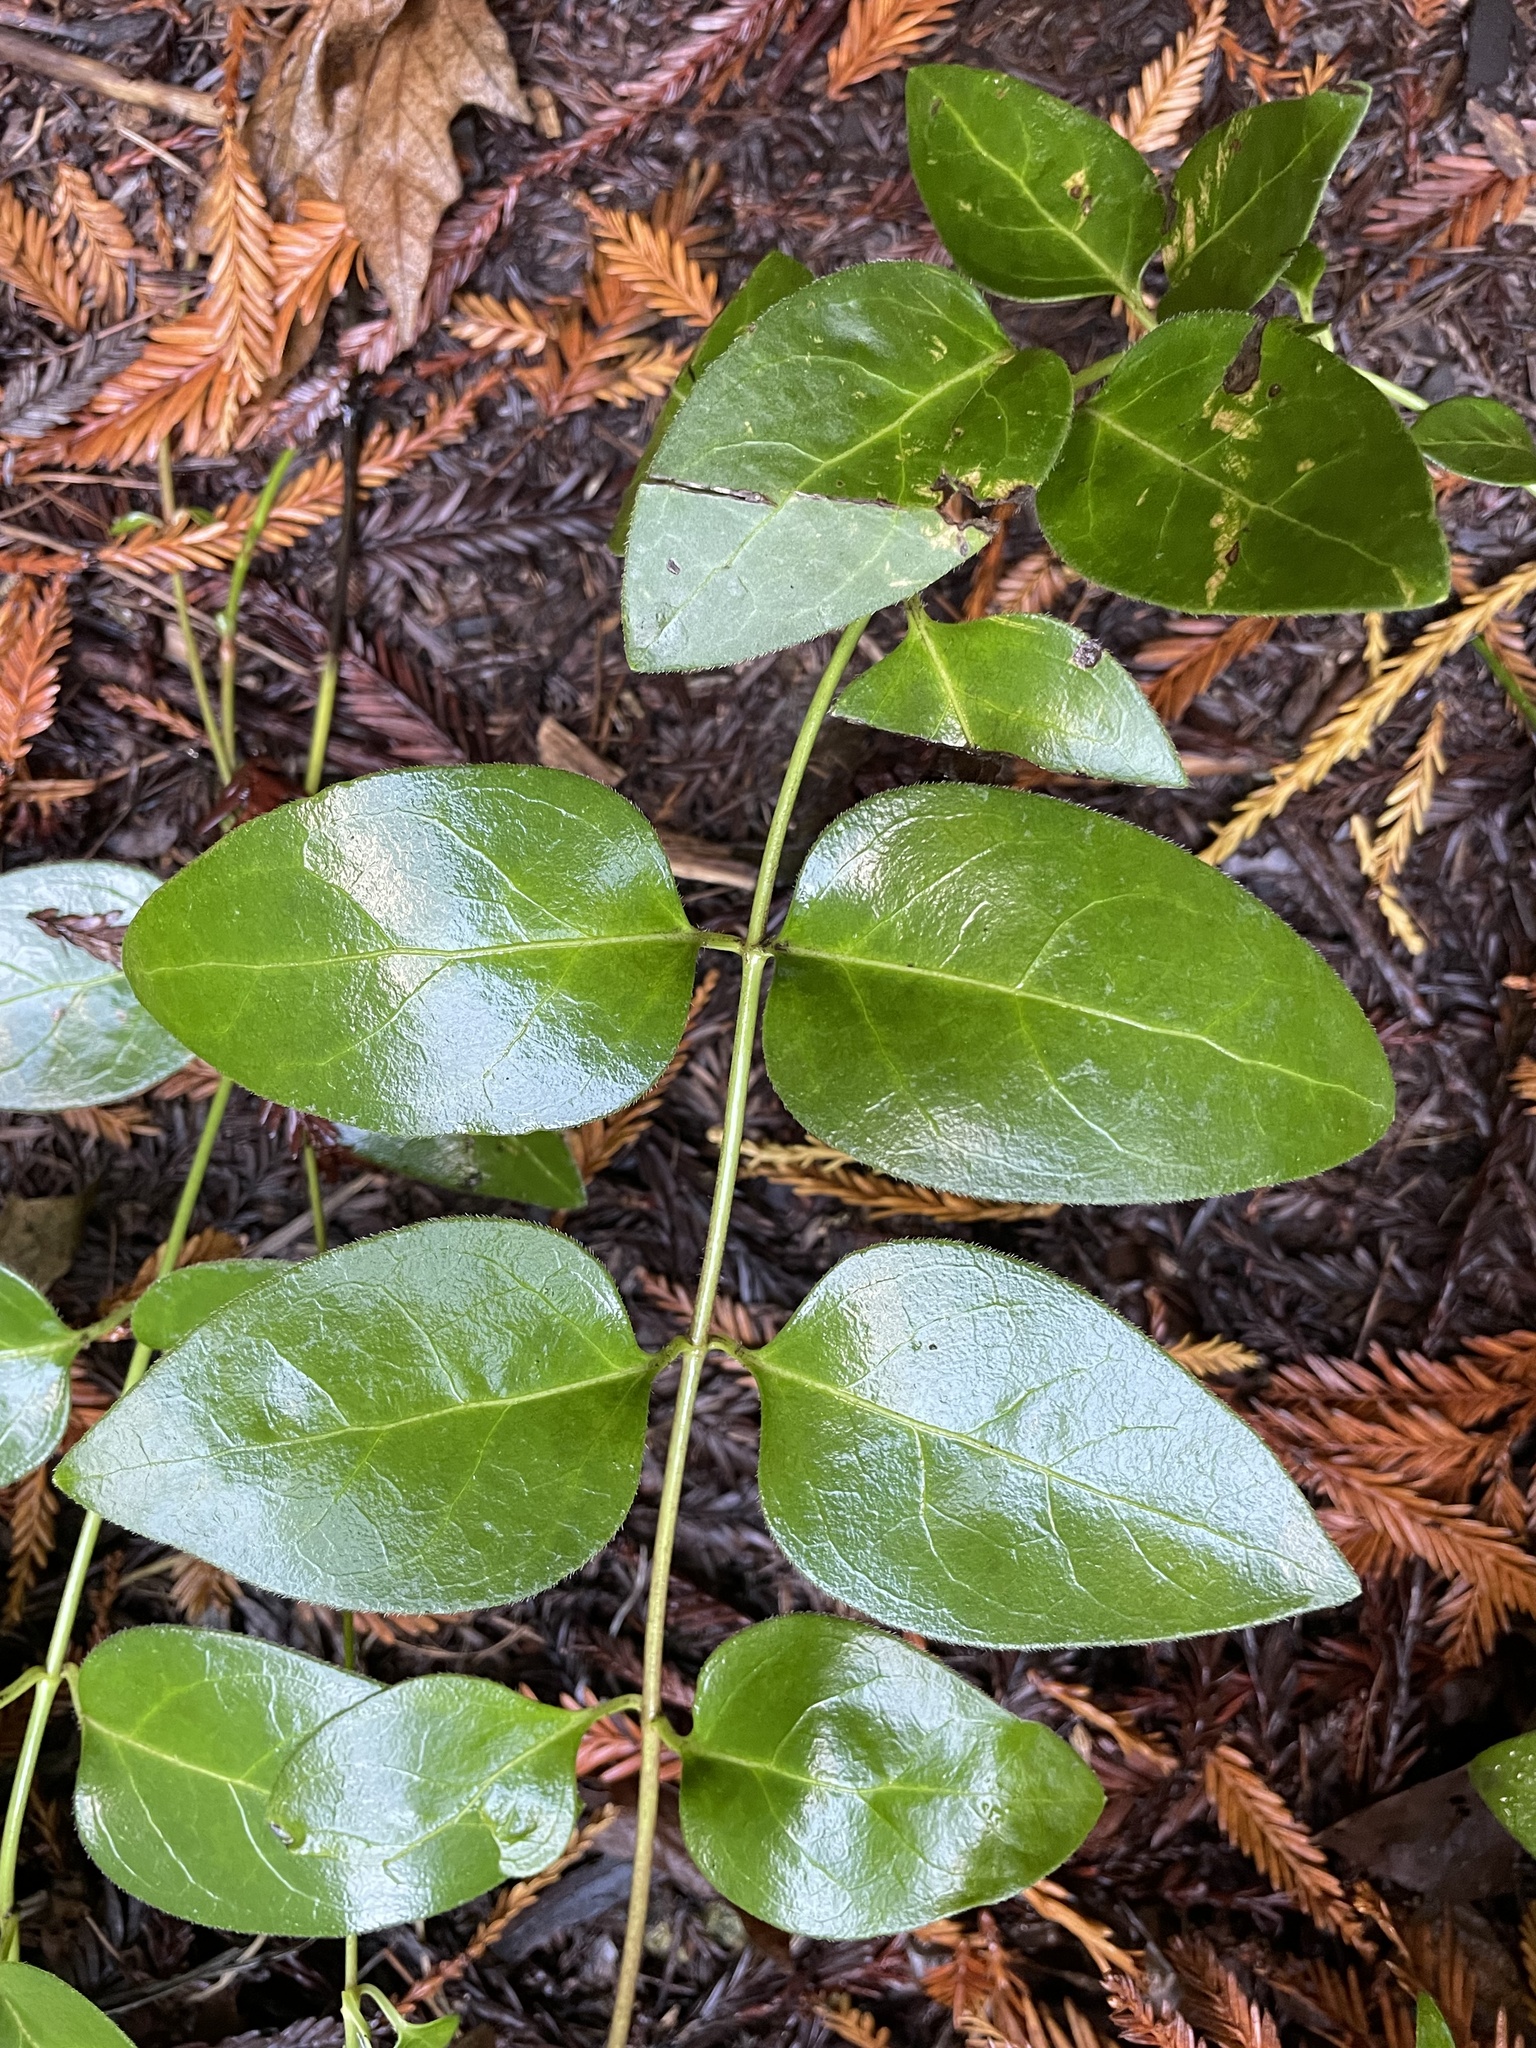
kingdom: Plantae
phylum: Tracheophyta
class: Magnoliopsida
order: Gentianales
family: Apocynaceae
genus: Vinca
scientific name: Vinca major
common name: Greater periwinkle
